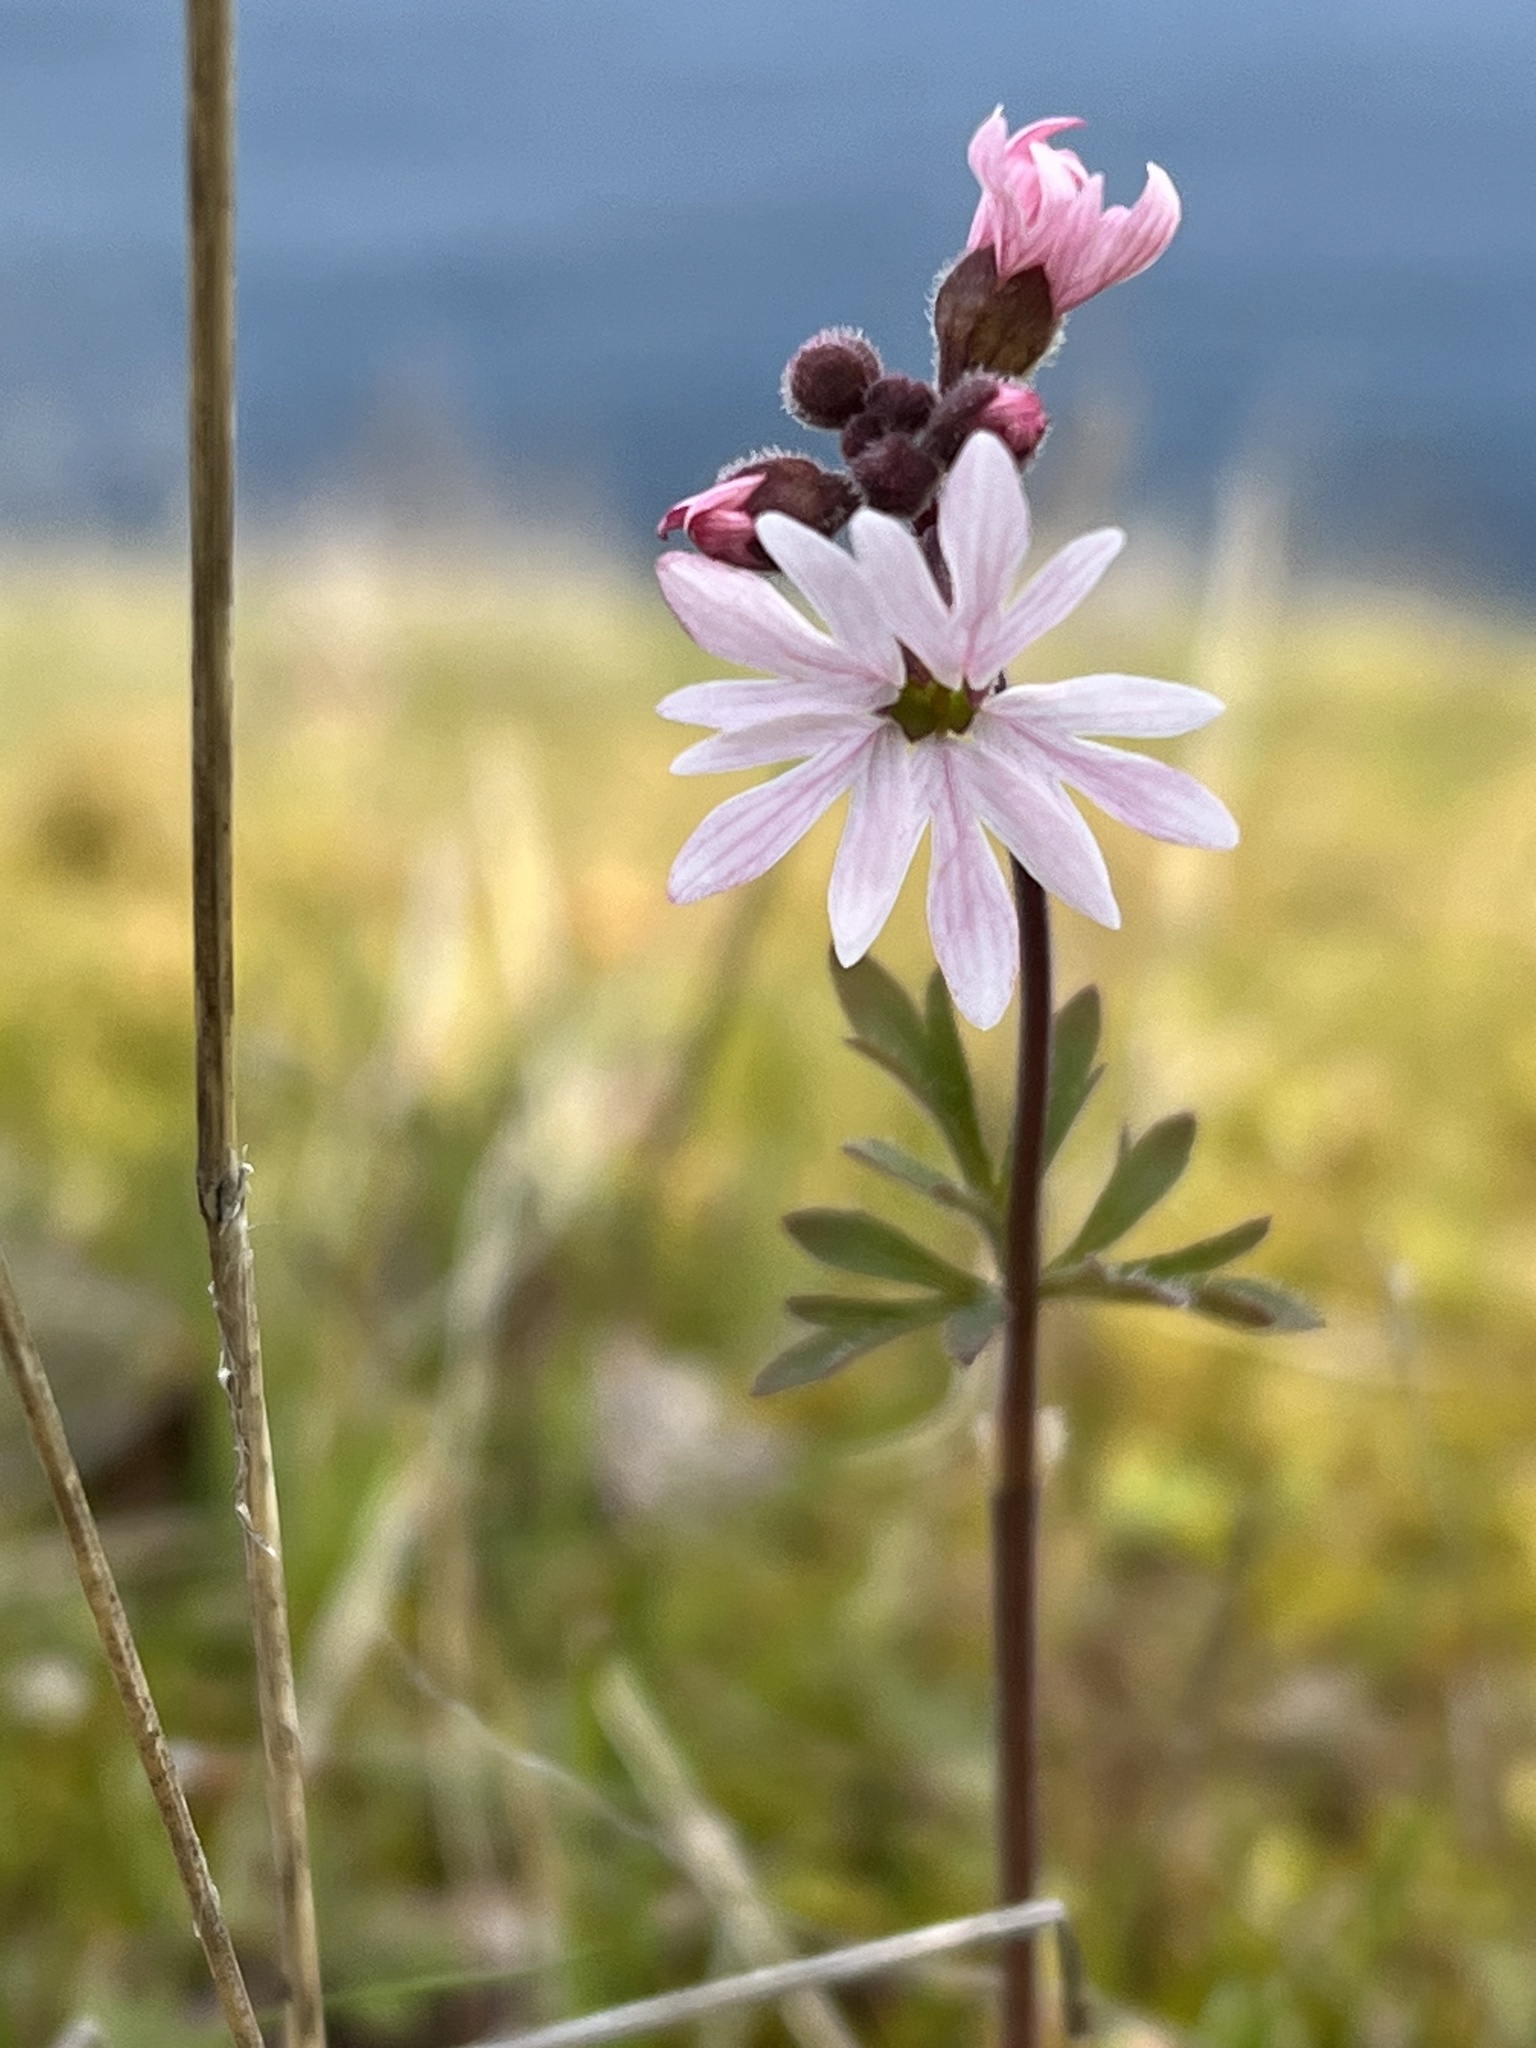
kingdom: Plantae
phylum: Tracheophyta
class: Magnoliopsida
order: Saxifragales
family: Saxifragaceae
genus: Lithophragma
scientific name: Lithophragma parviflorum
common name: Small-flowered fringe-cup
